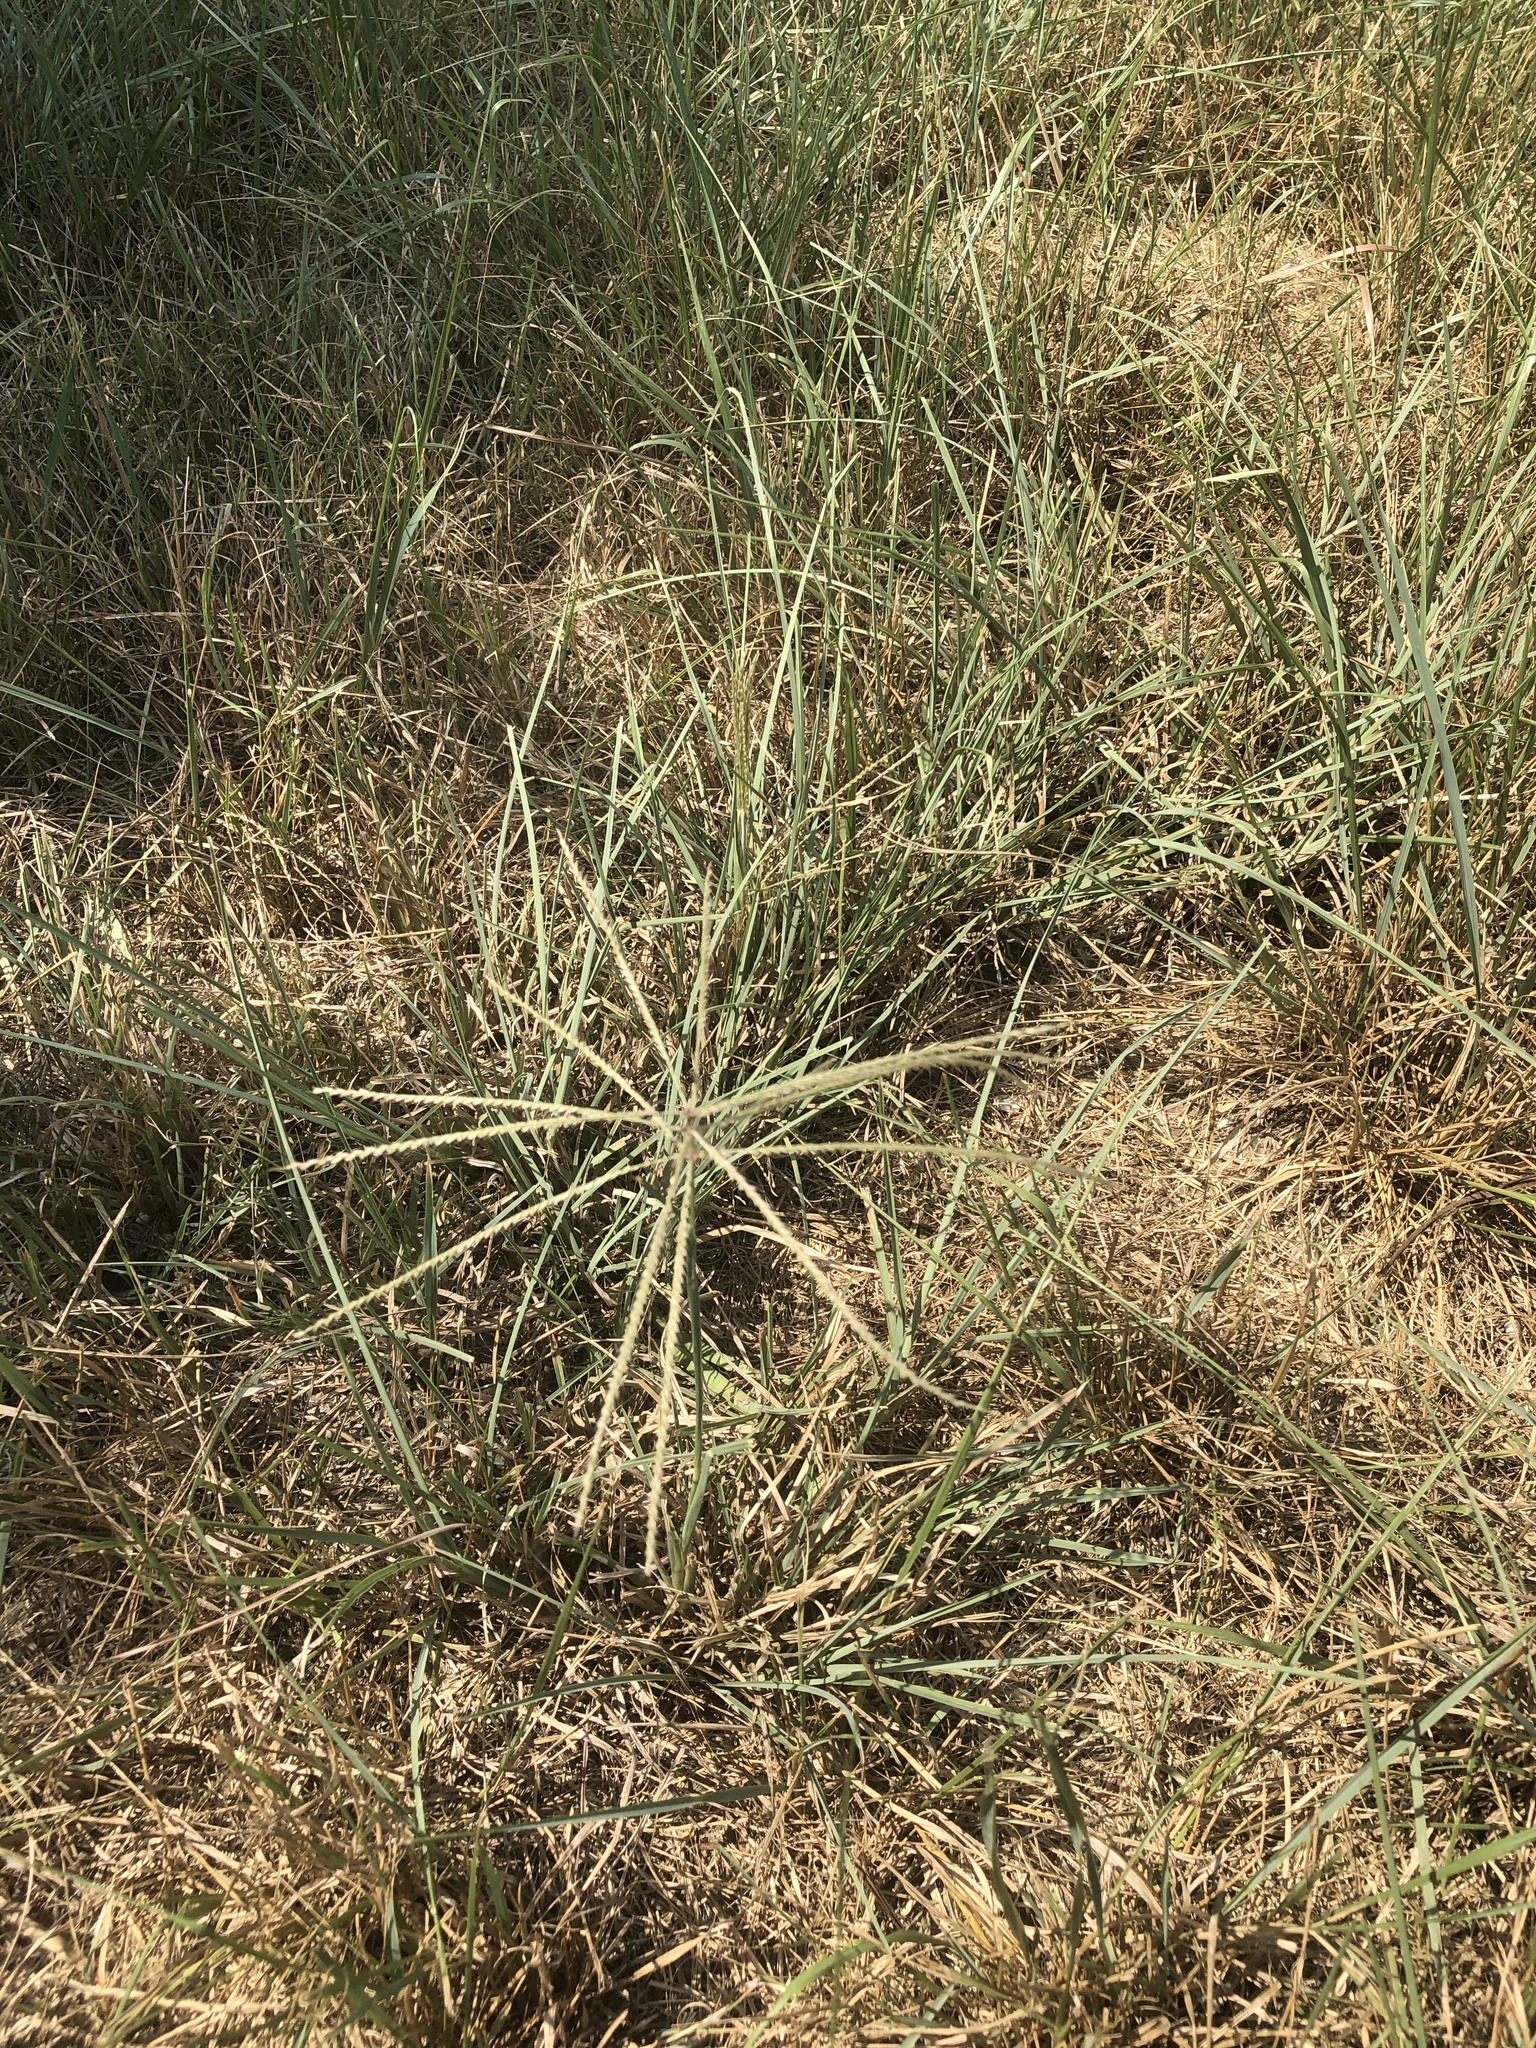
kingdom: Plantae
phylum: Tracheophyta
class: Liliopsida
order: Poales
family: Poaceae
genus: Chloris
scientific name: Chloris verticillata
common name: Tumble windmill grass
